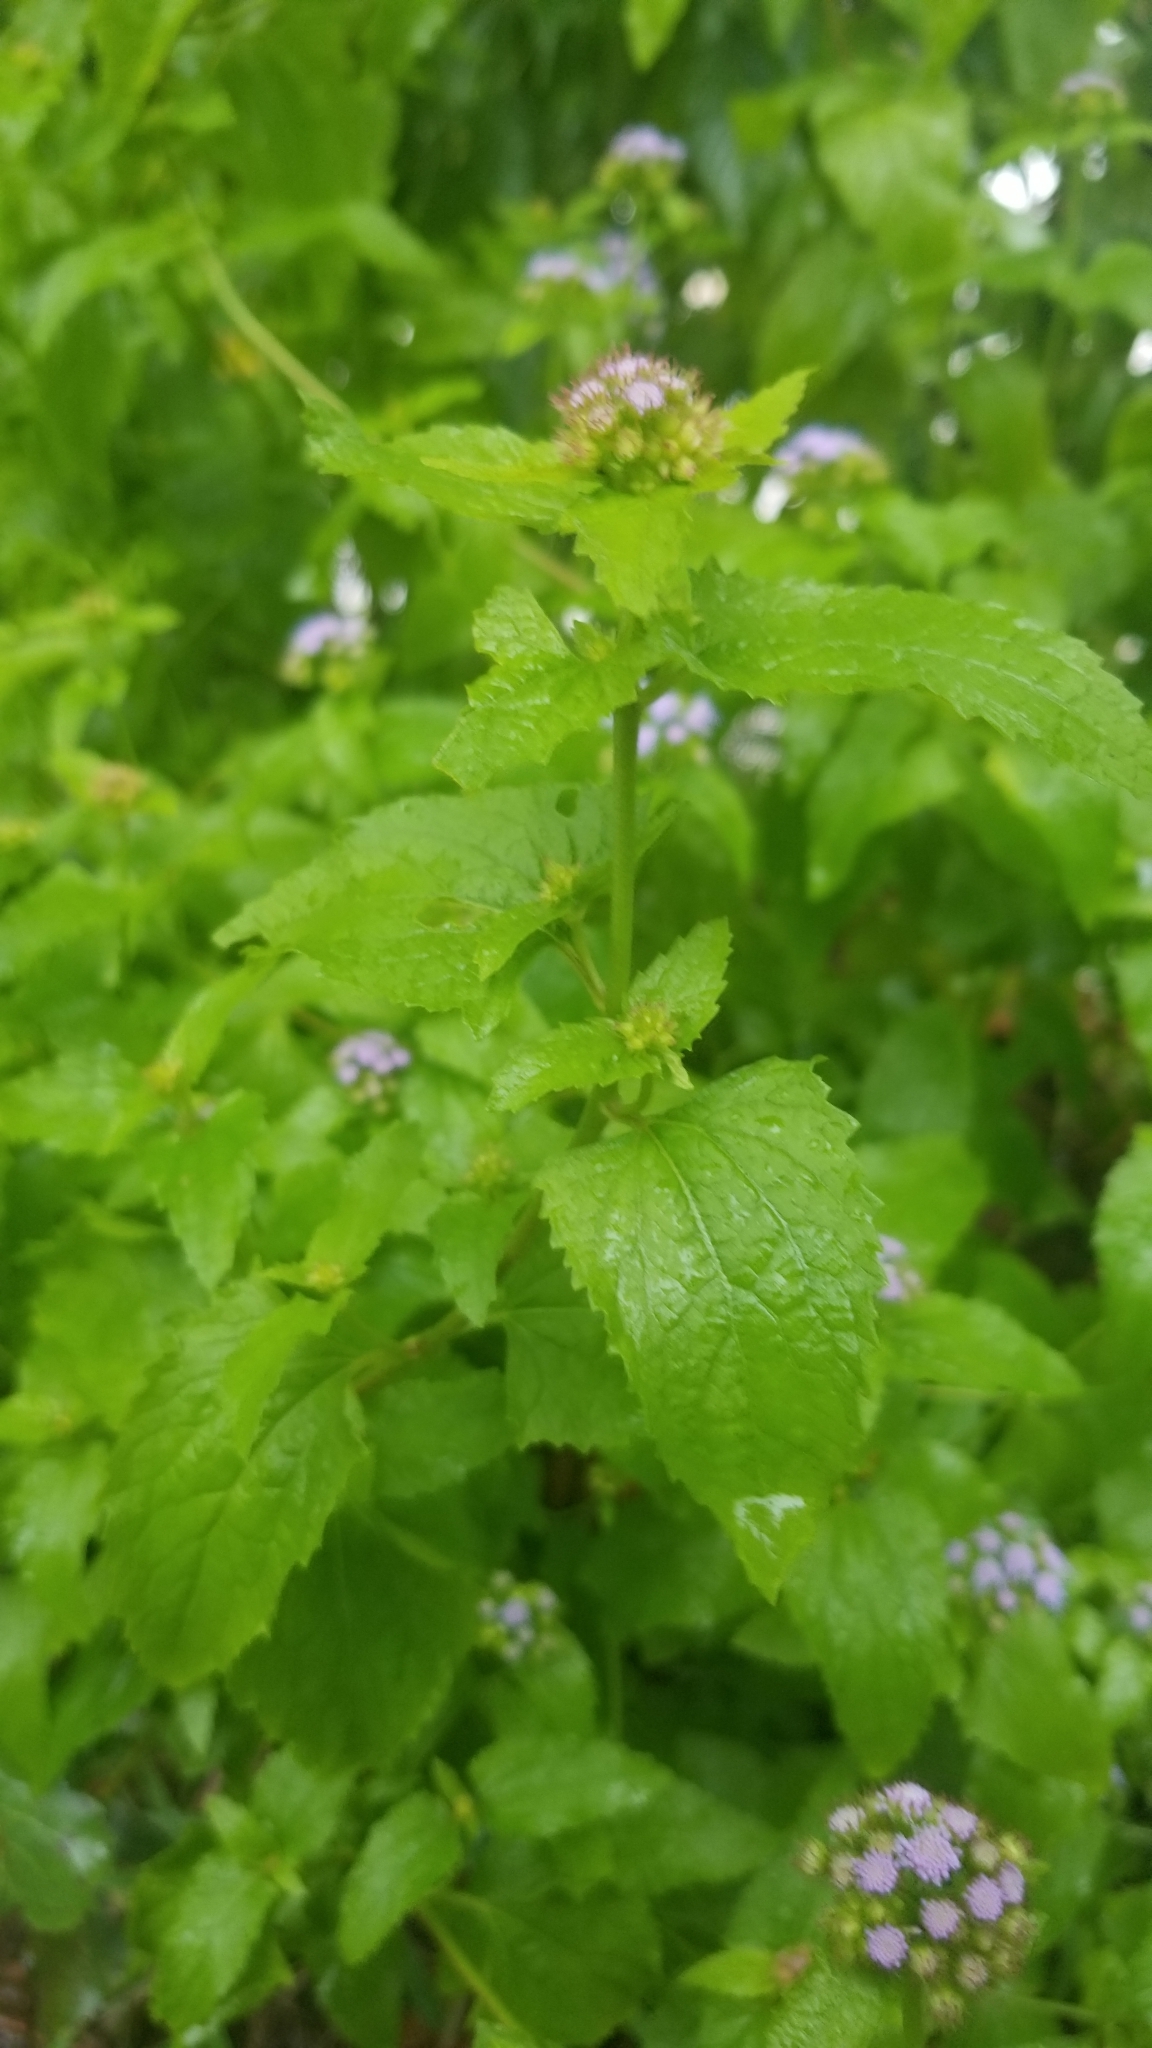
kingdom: Plantae
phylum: Tracheophyta
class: Magnoliopsida
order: Asterales
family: Asteraceae
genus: Conoclinium
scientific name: Conoclinium coelestinum
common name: Blue mistflower
